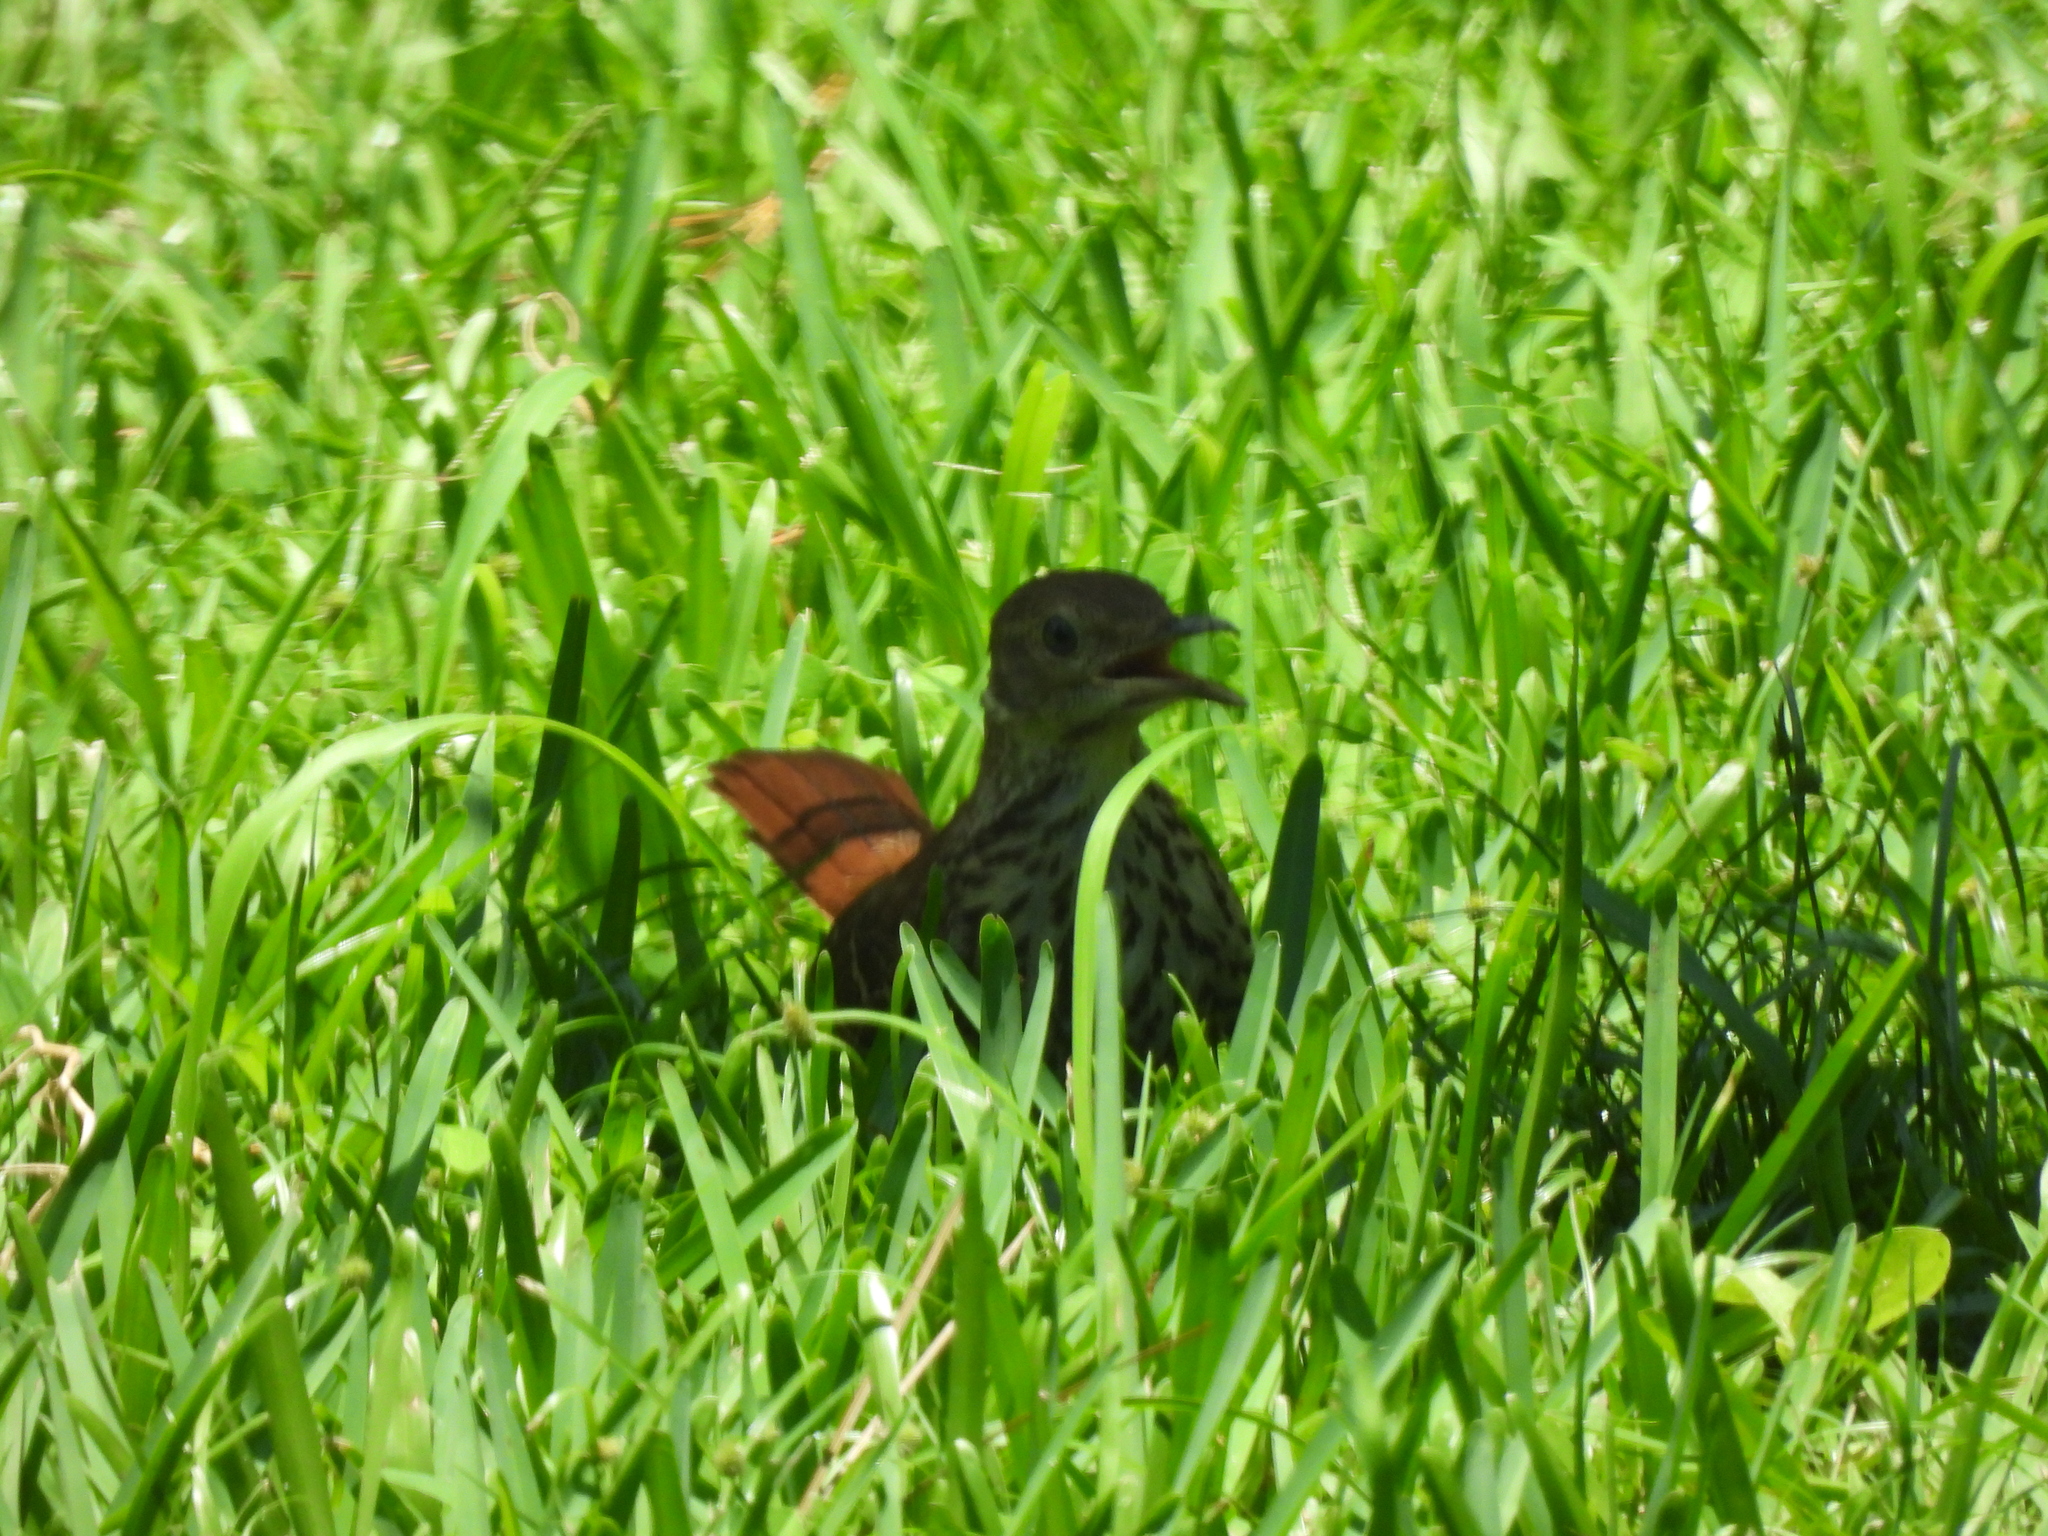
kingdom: Animalia
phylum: Chordata
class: Aves
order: Passeriformes
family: Mimidae
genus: Toxostoma
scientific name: Toxostoma rufum
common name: Brown thrasher
